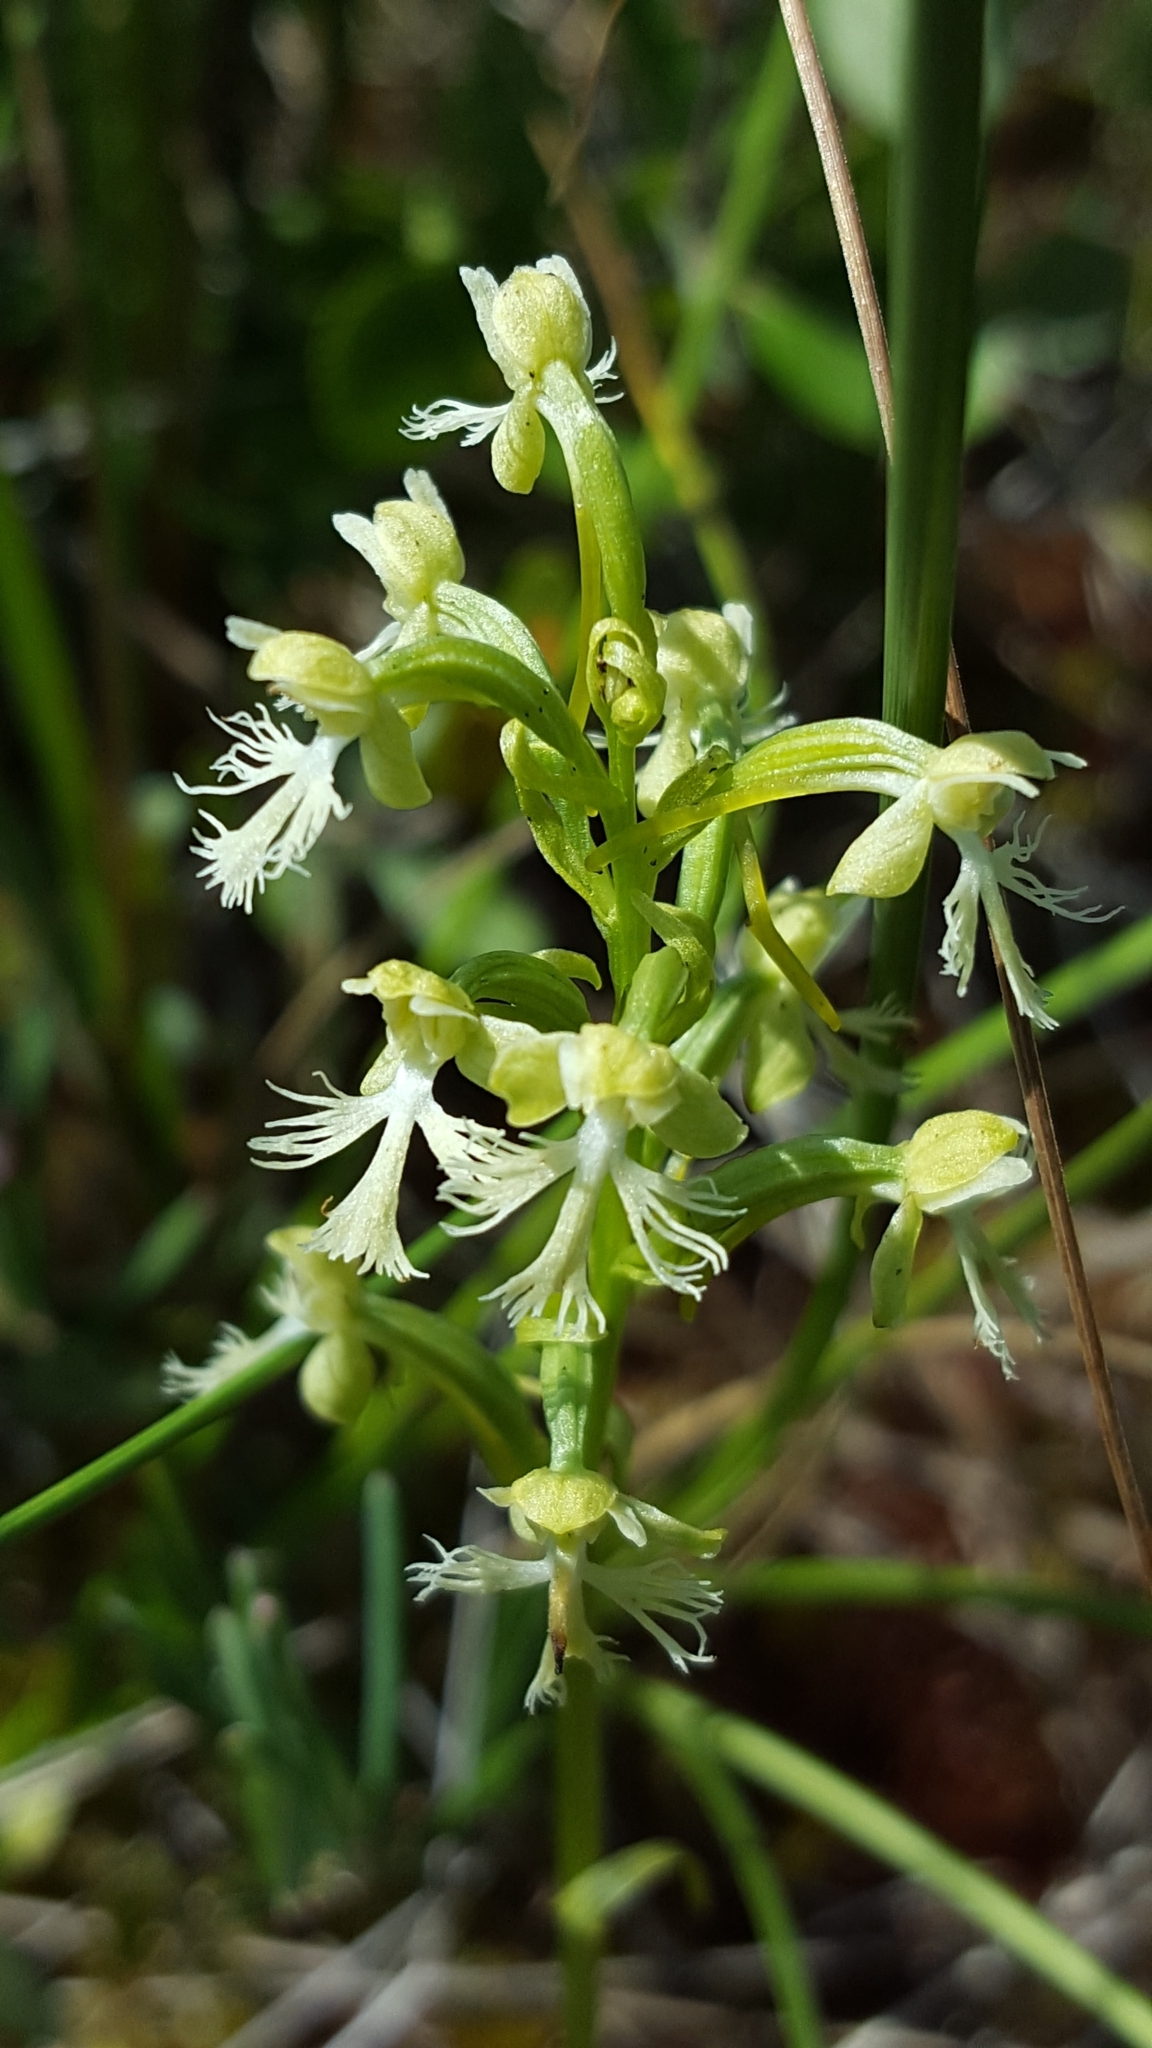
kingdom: Plantae
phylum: Tracheophyta
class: Liliopsida
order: Asparagales
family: Orchidaceae
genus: Platanthera
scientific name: Platanthera lacera
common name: Green fringed orchid
